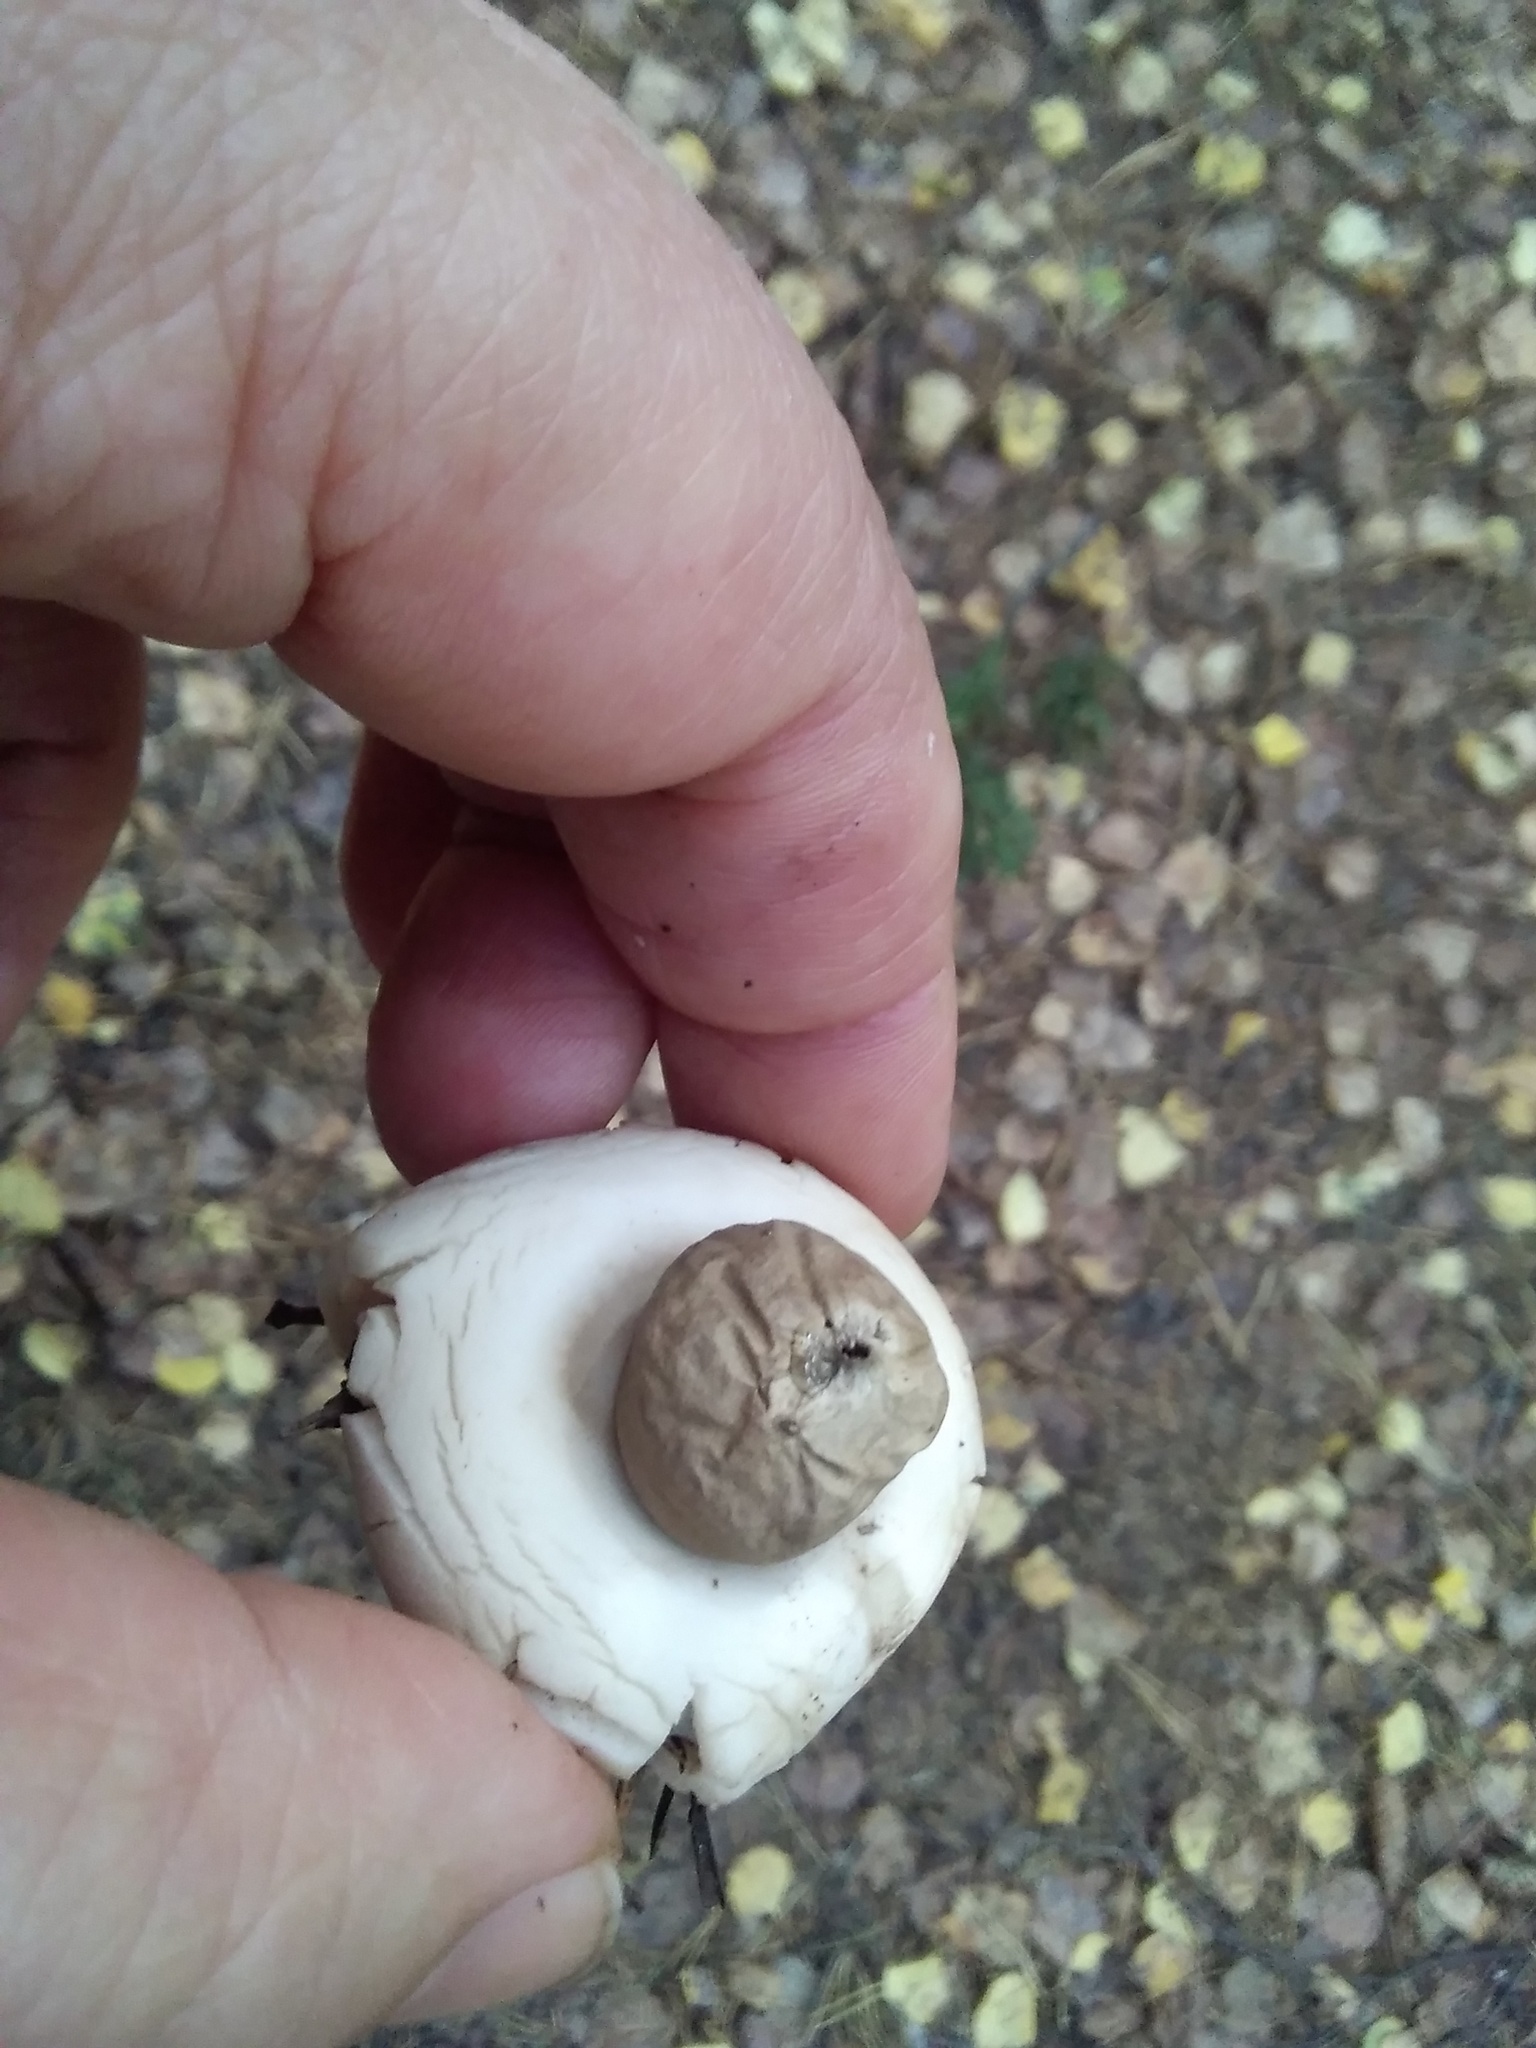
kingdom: Fungi
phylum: Basidiomycota
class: Agaricomycetes
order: Geastrales
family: Geastraceae
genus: Geastrum
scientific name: Geastrum fimbriatum
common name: Sessile earthstar
